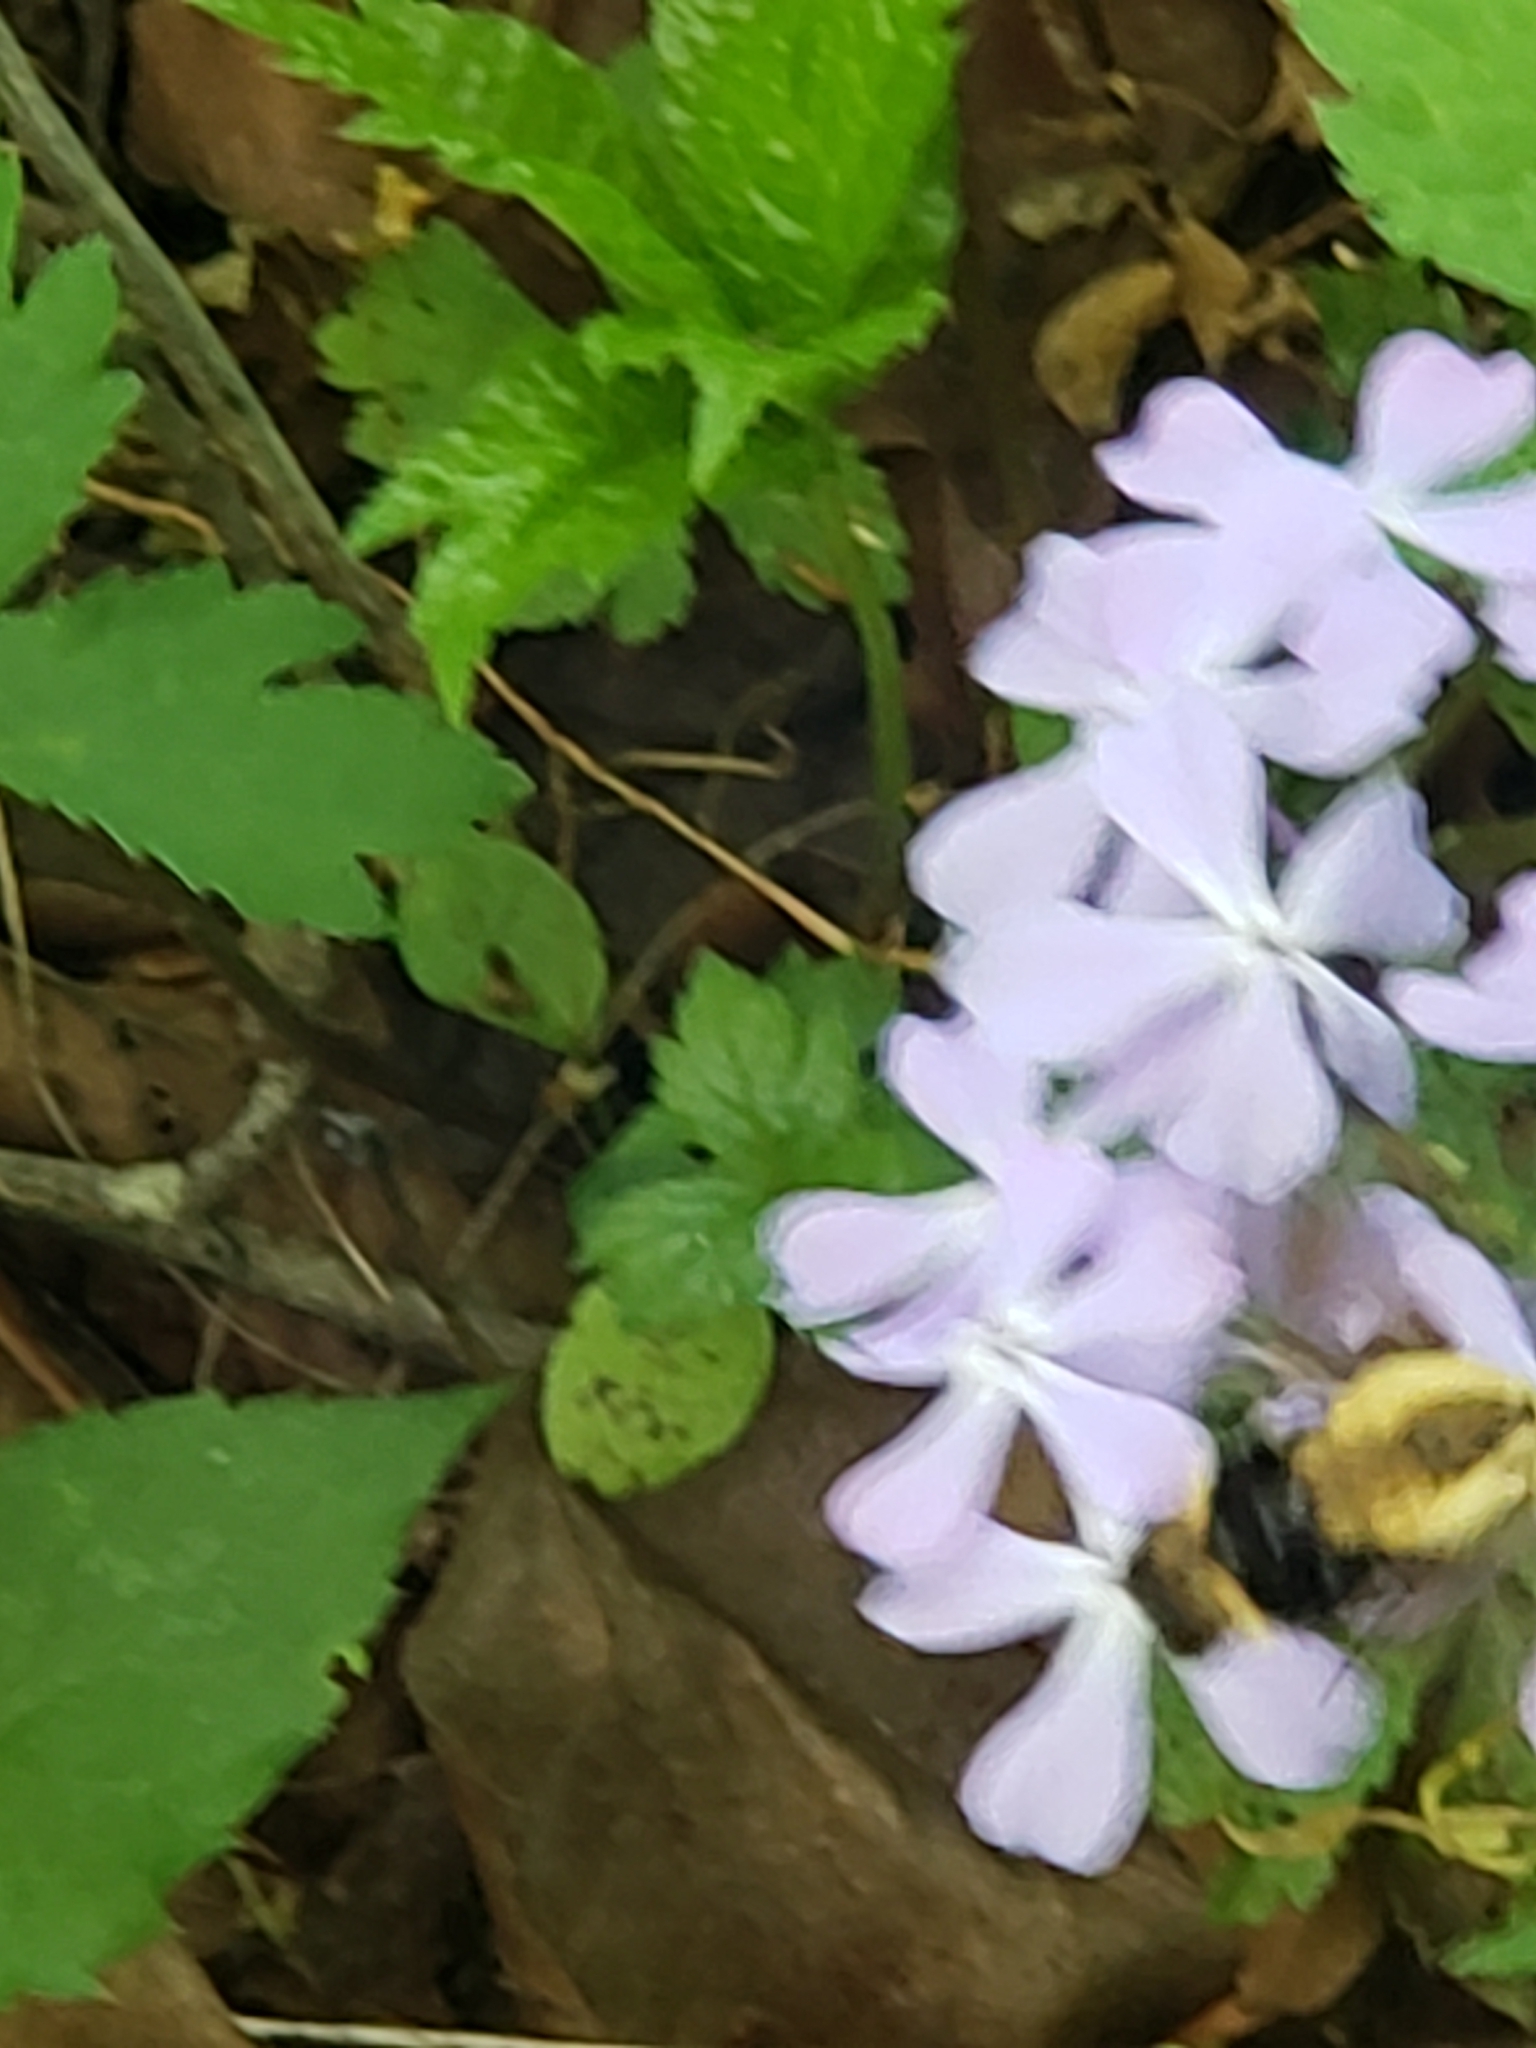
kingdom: Plantae
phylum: Tracheophyta
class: Magnoliopsida
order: Ericales
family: Polemoniaceae
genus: Phlox
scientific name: Phlox divaricata
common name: Blue phlox
